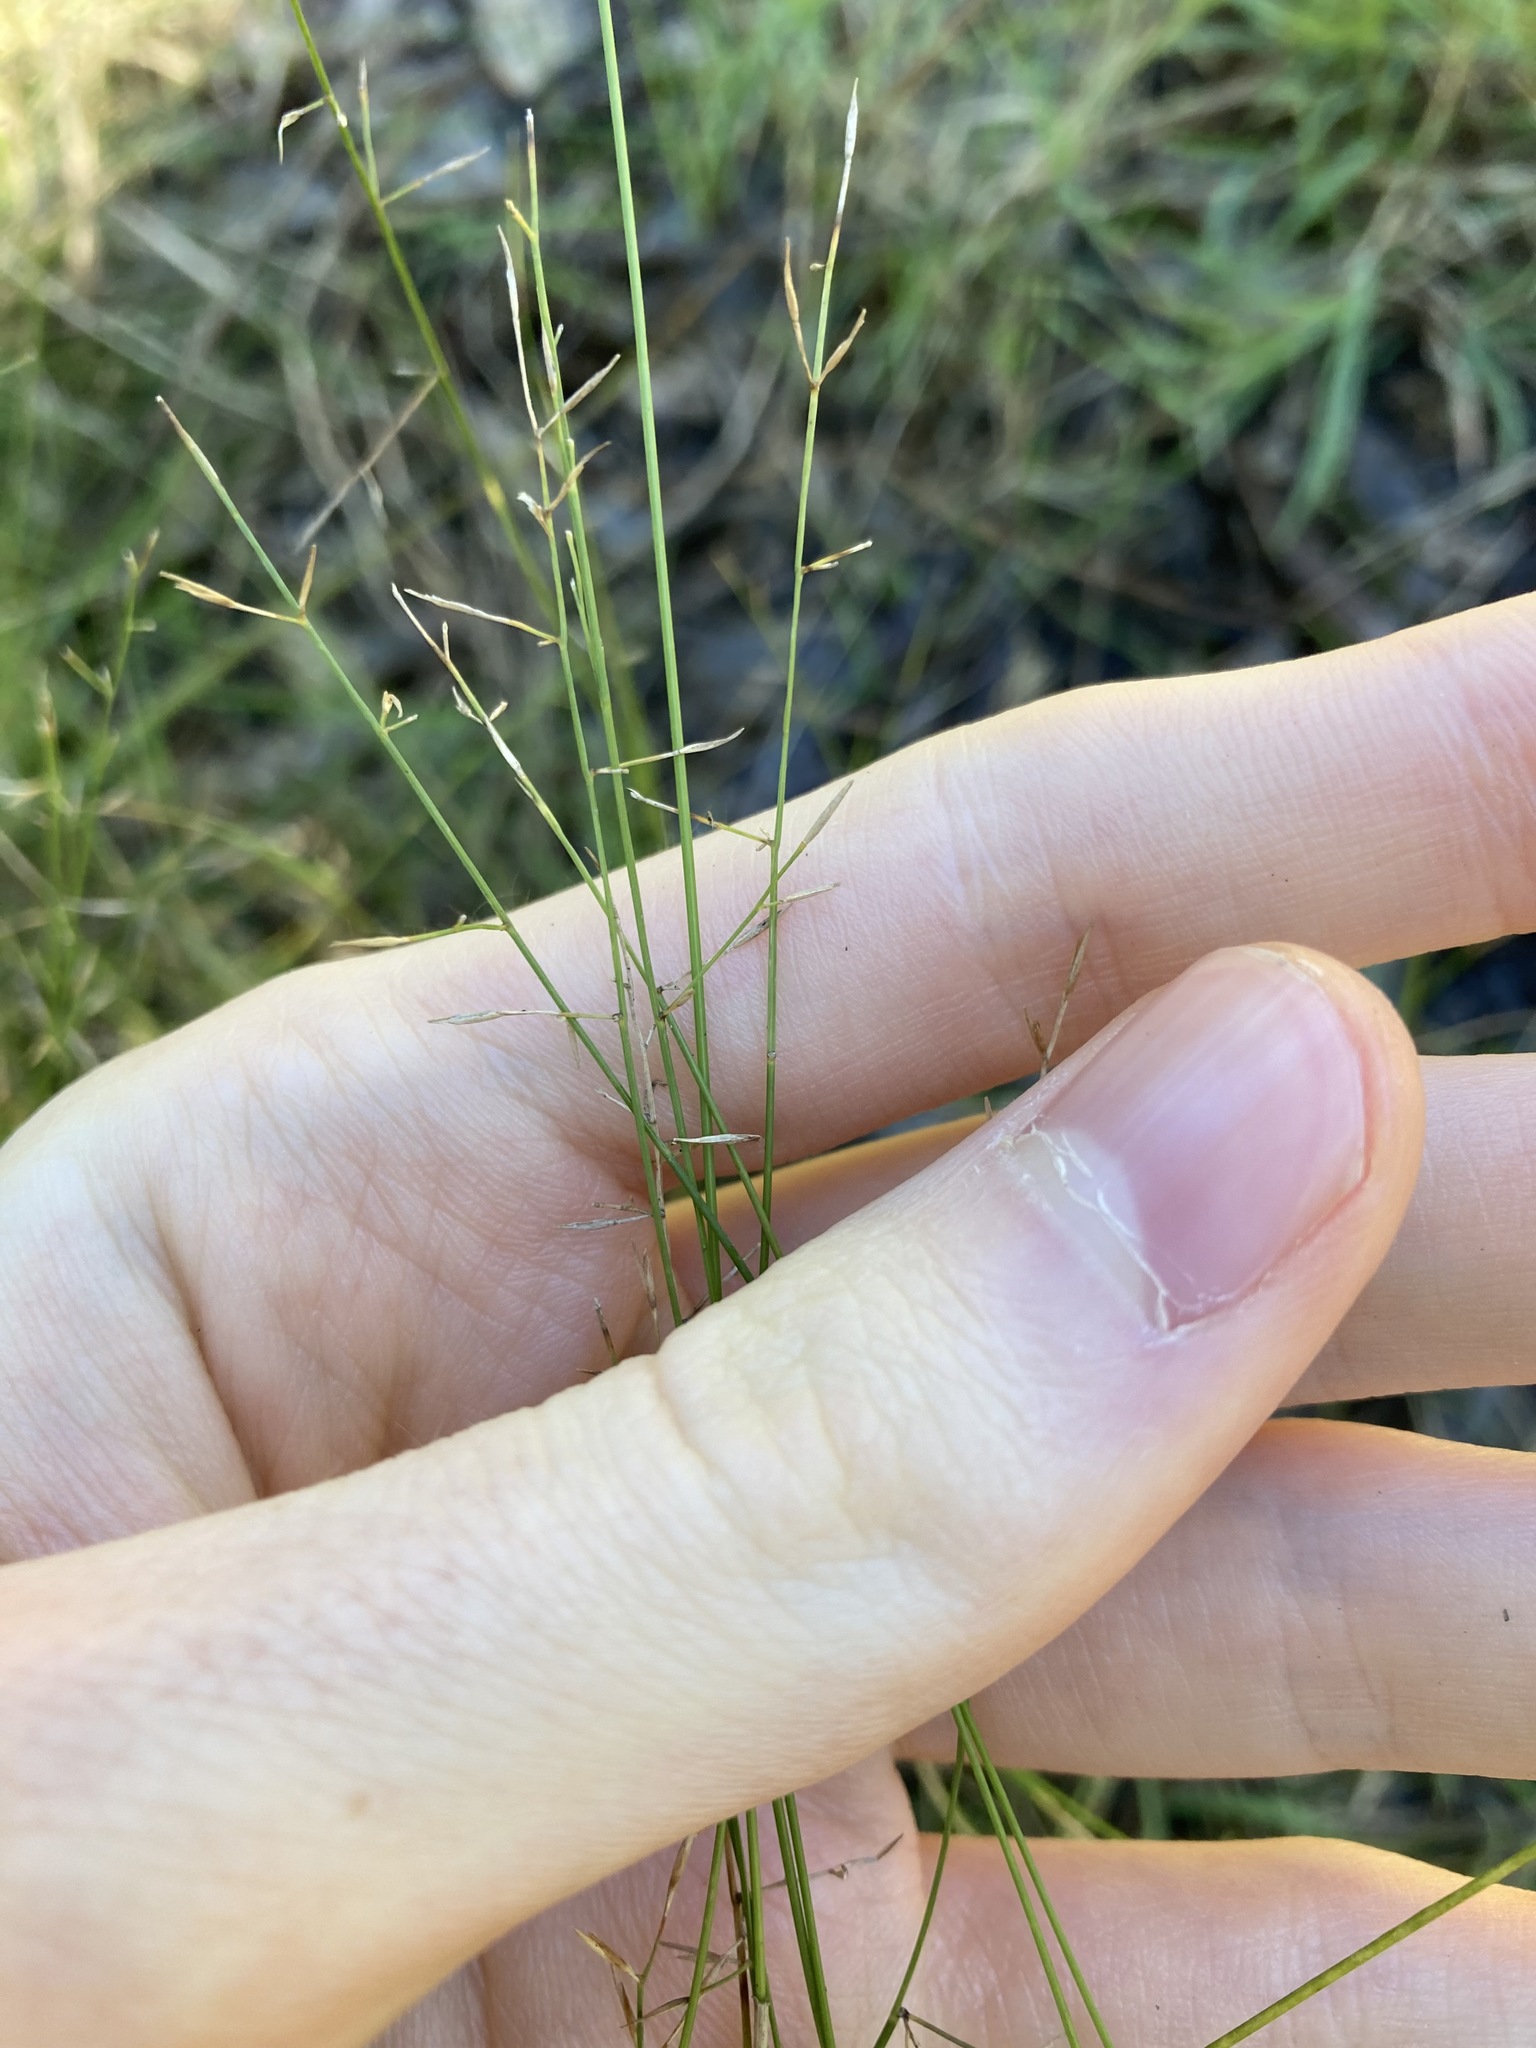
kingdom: Plantae
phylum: Tracheophyta
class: Liliopsida
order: Poales
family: Poaceae
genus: Aristida
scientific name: Aristida vagans
